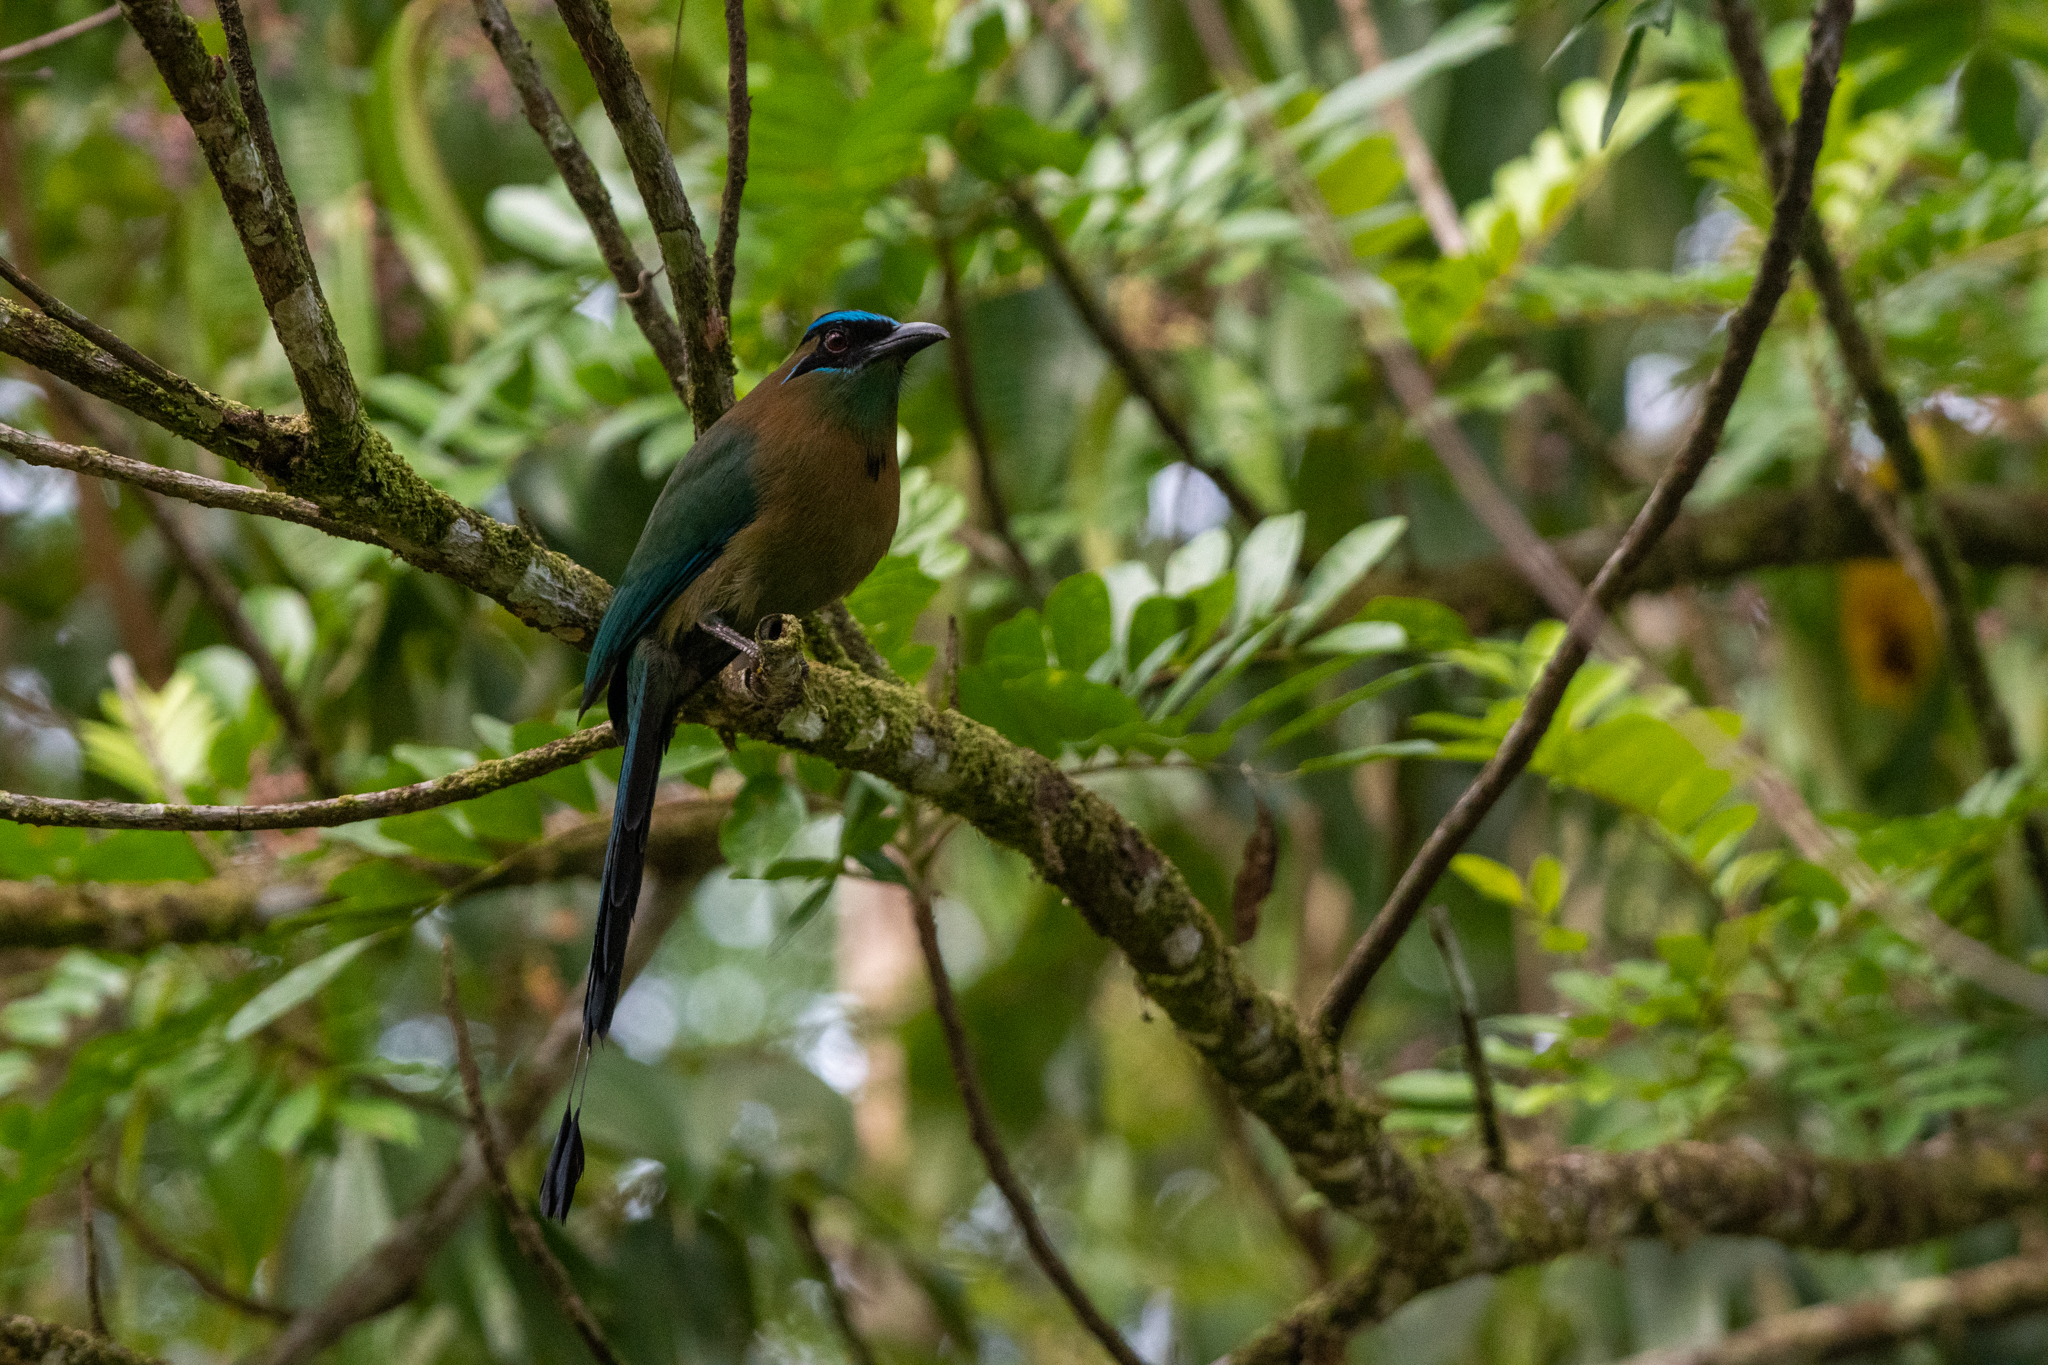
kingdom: Animalia
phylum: Chordata
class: Aves
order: Coraciiformes
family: Momotidae
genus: Momotus
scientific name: Momotus lessonii
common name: Lesson's motmot
